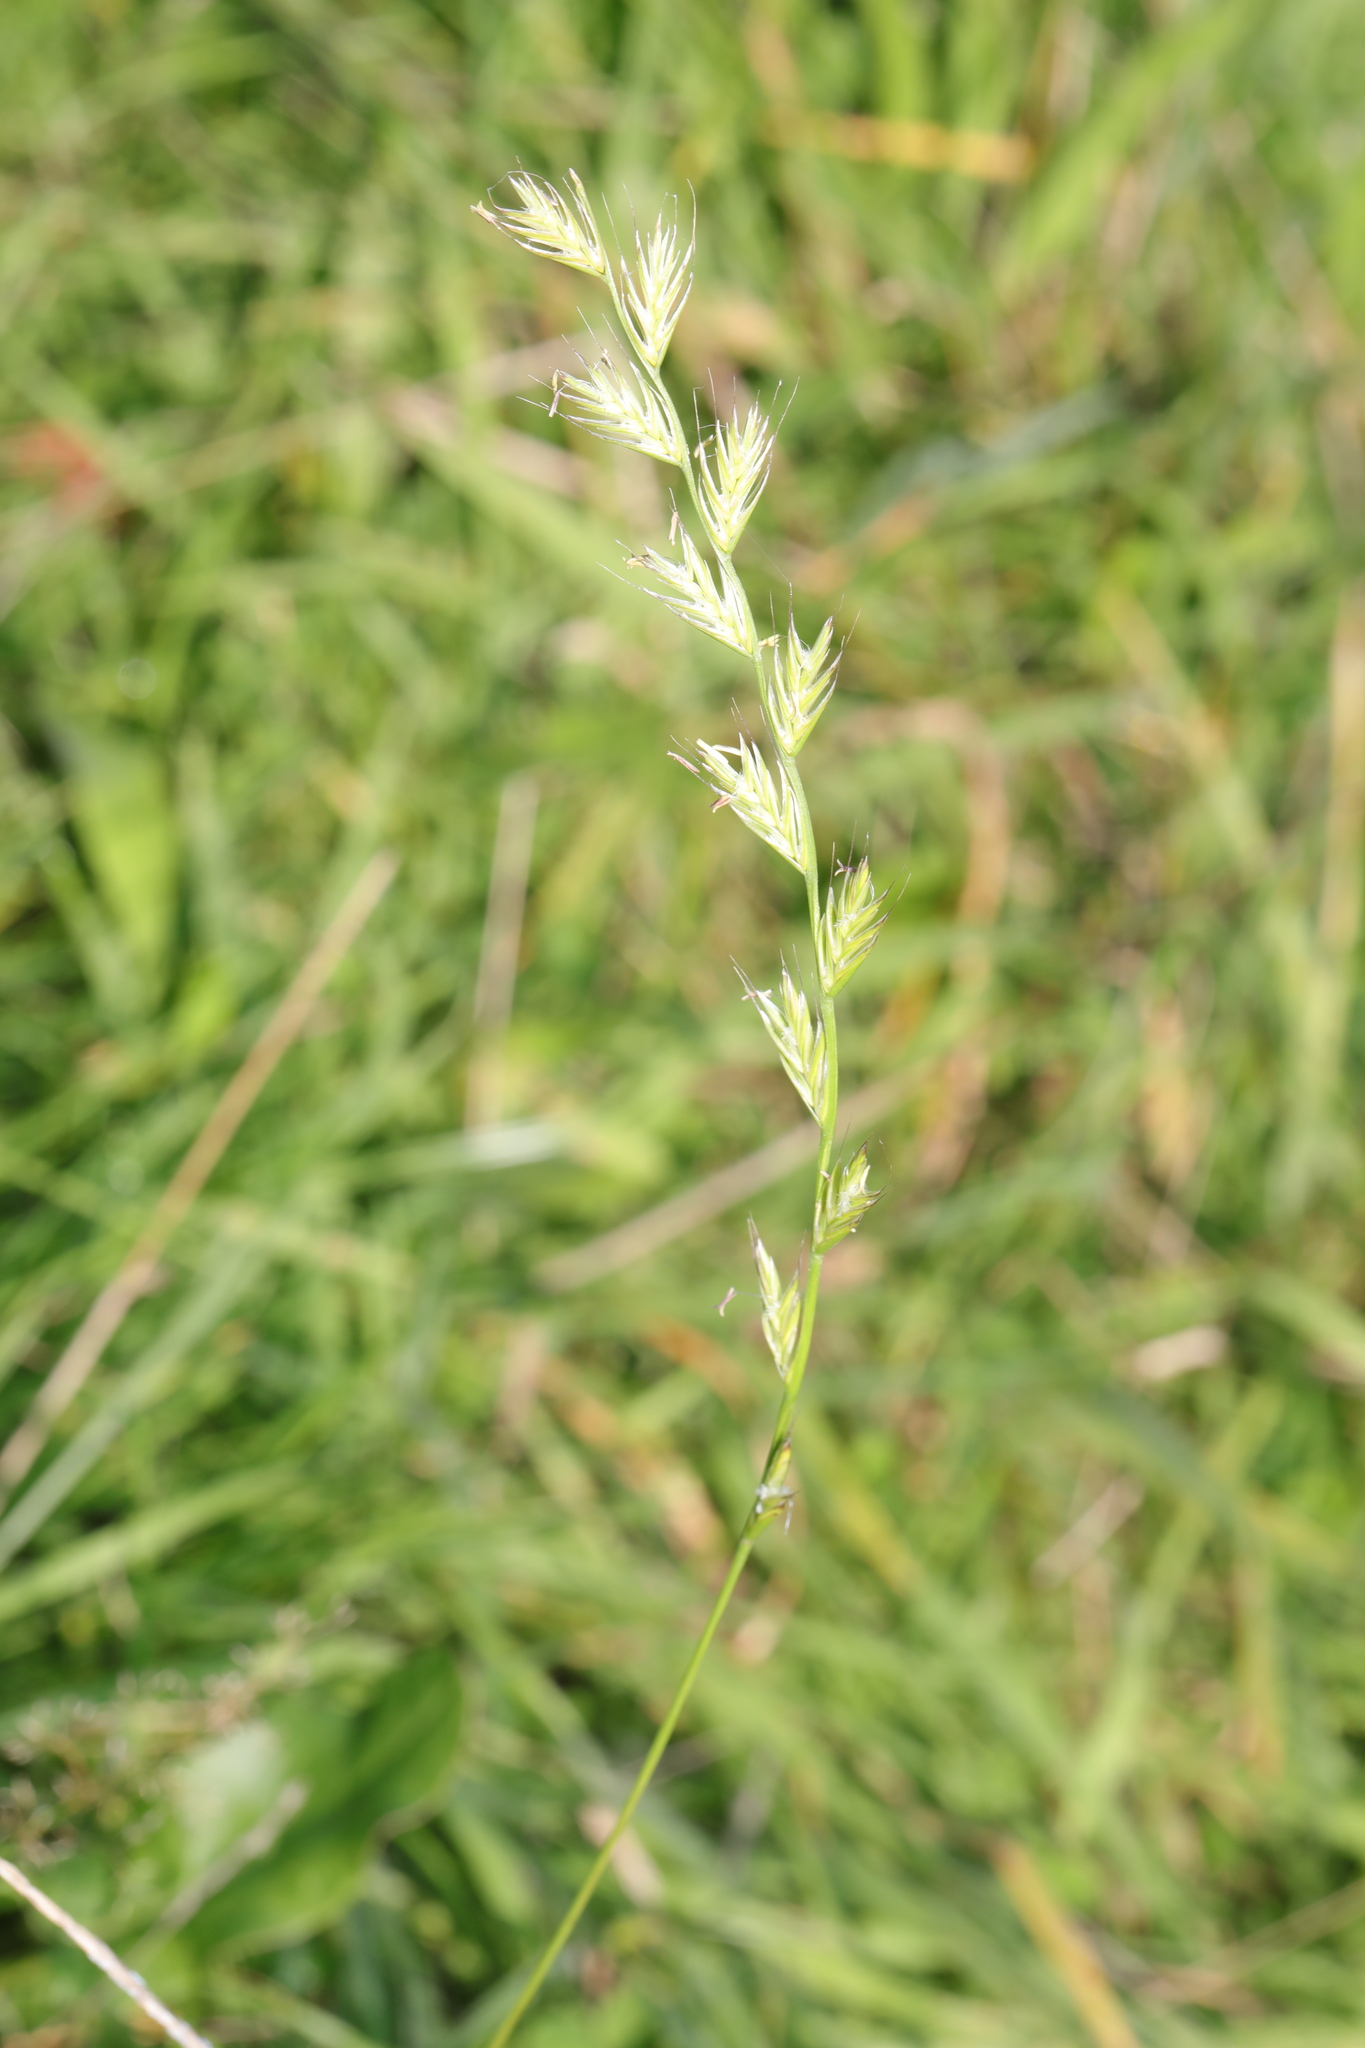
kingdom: Plantae
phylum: Tracheophyta
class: Liliopsida
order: Poales
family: Poaceae
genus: Lolium
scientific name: Lolium multiflorum
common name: Annual ryegrass
